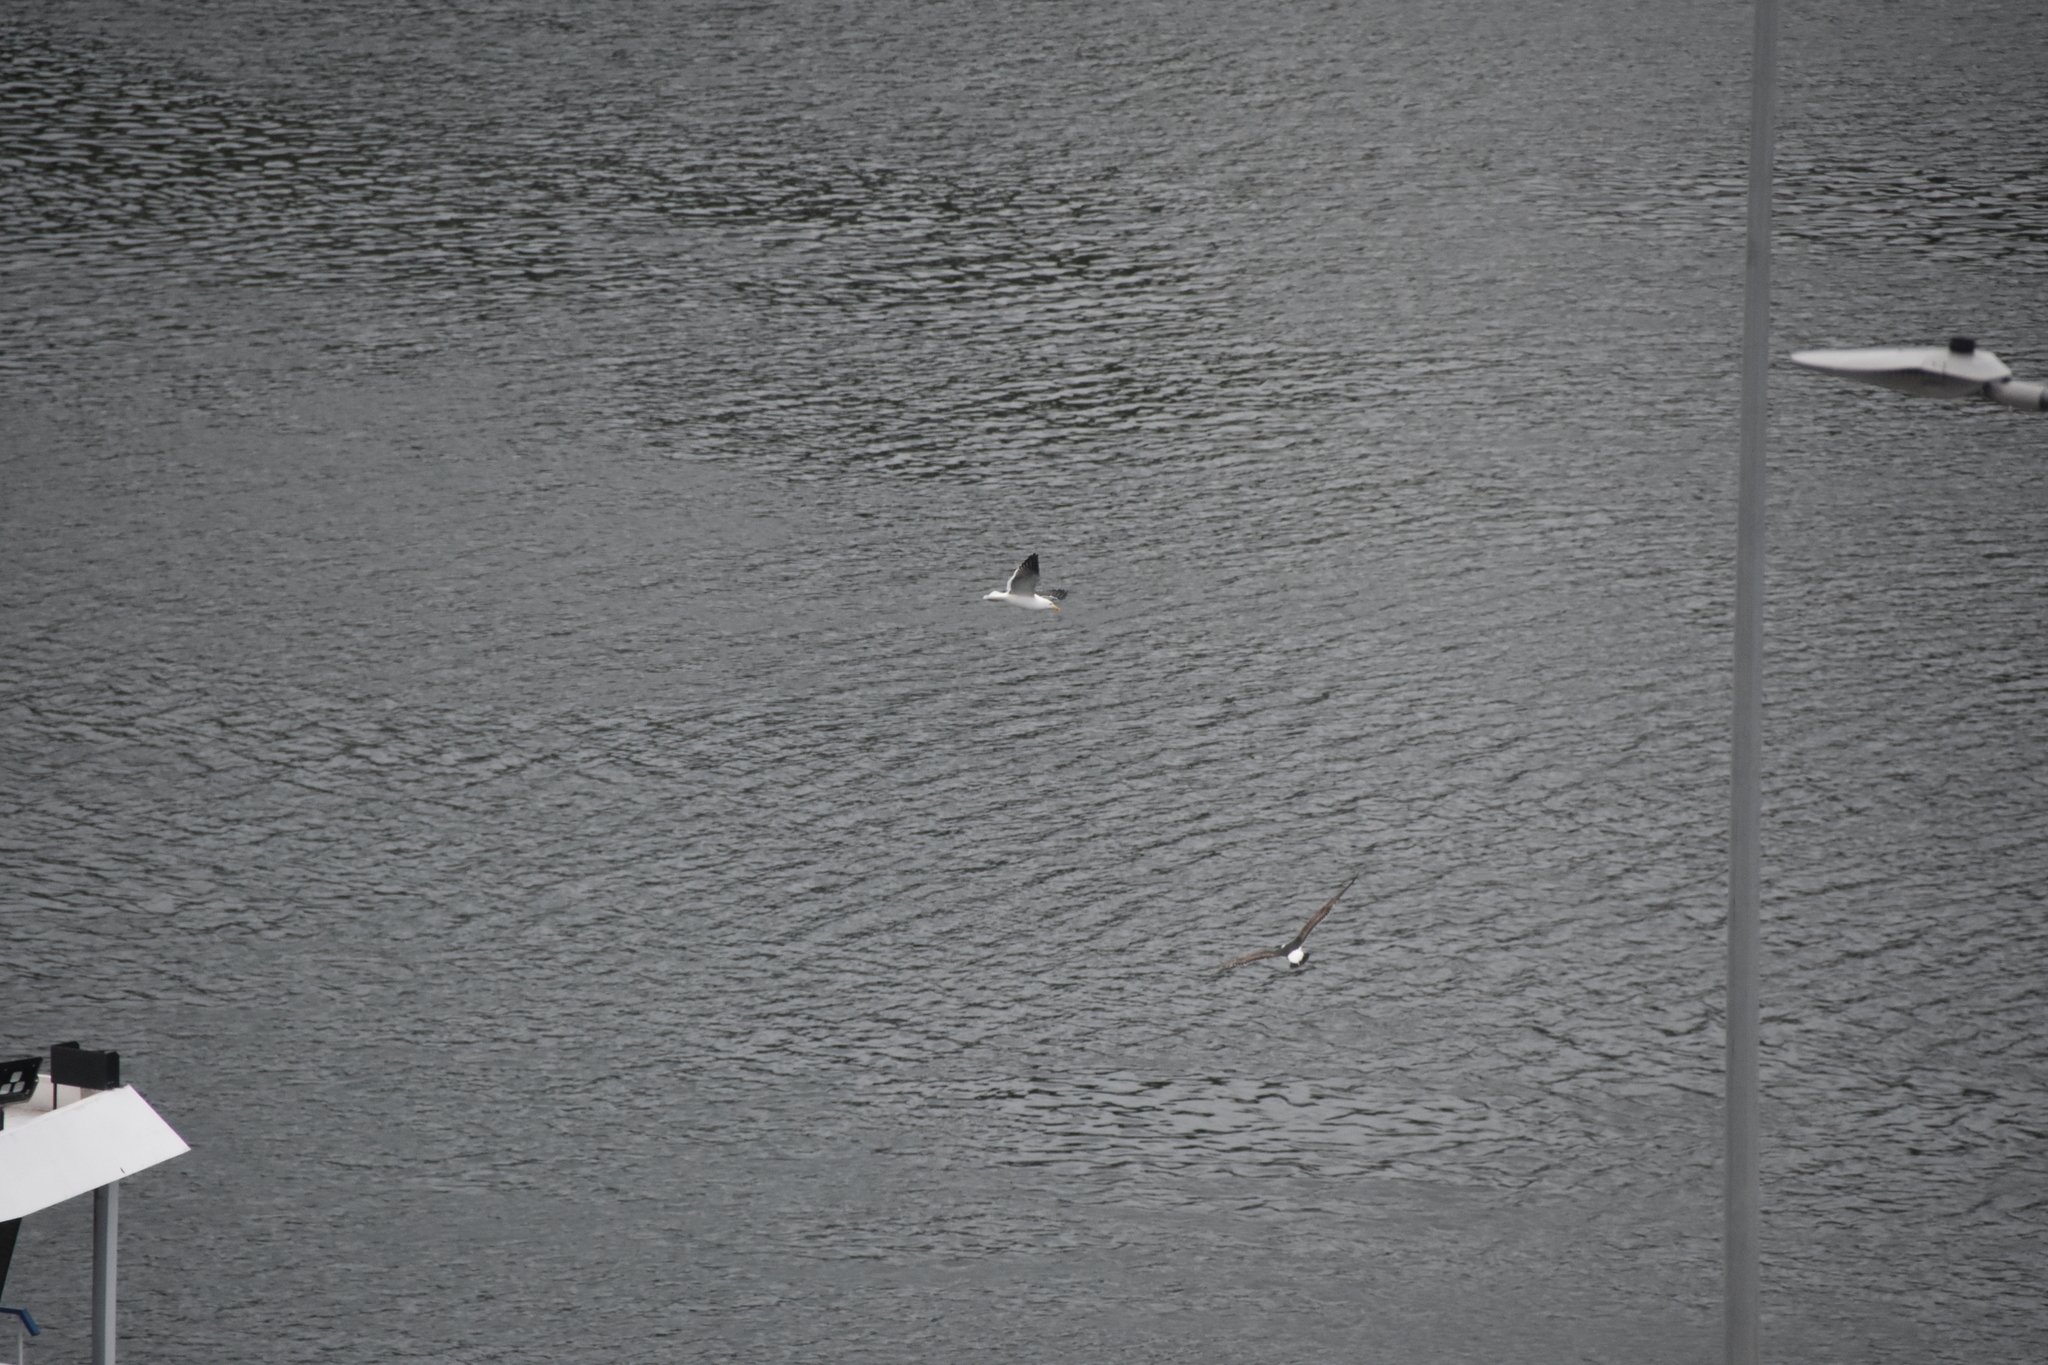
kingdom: Animalia
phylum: Chordata
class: Aves
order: Charadriiformes
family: Laridae
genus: Larus
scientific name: Larus dominicanus
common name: Kelp gull
